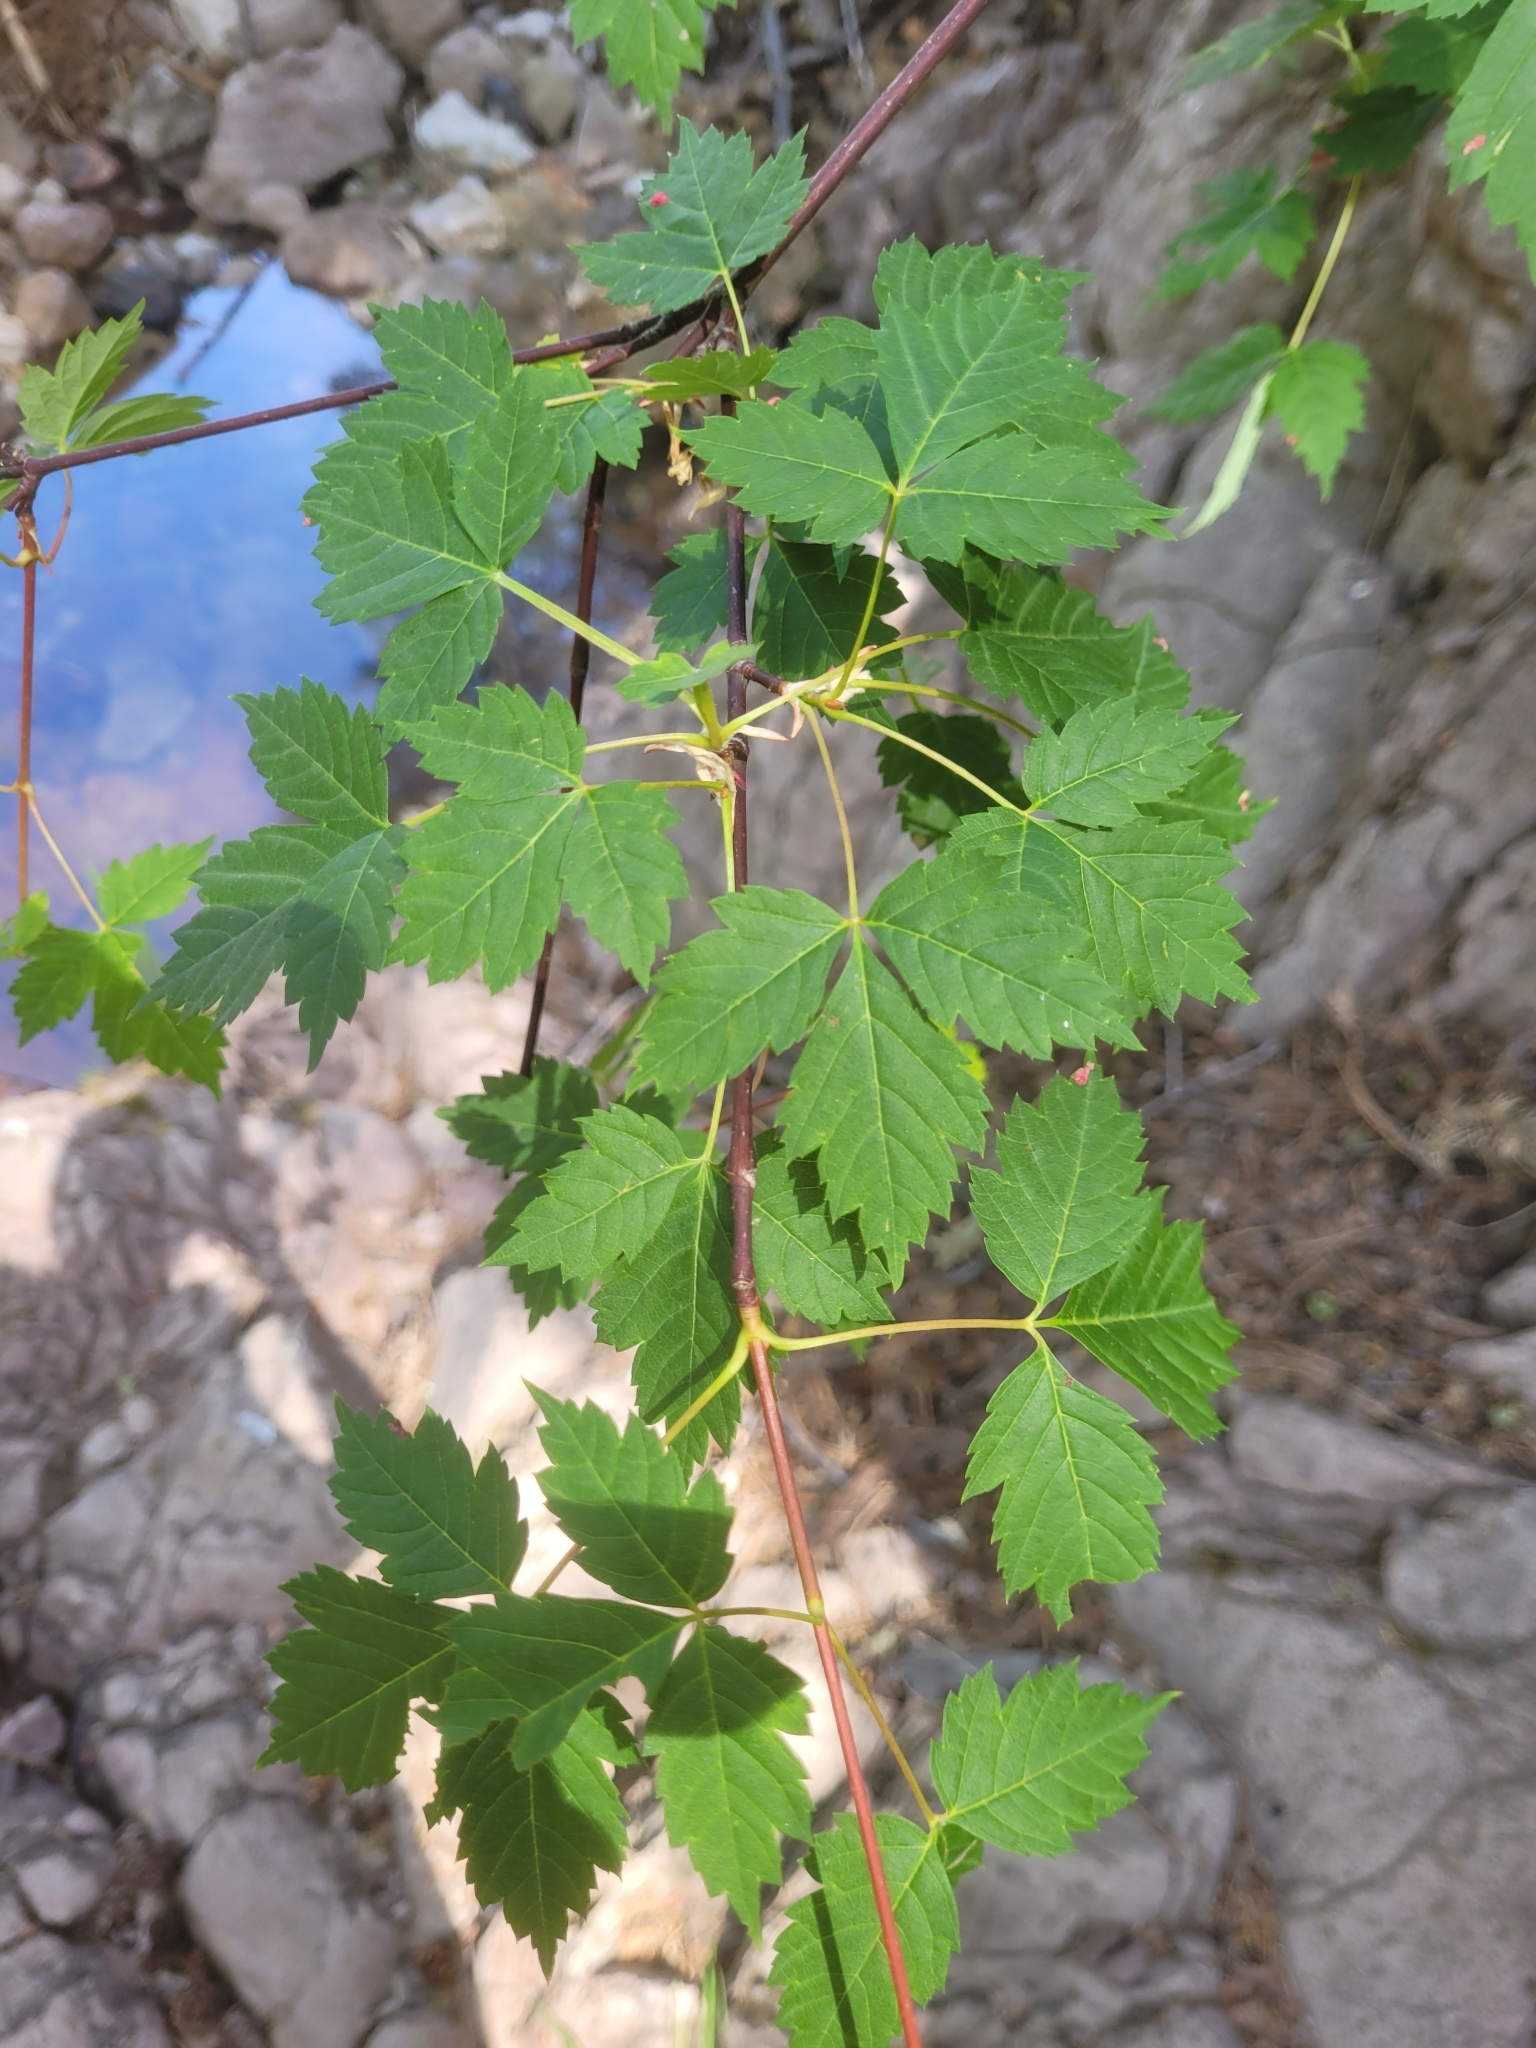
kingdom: Plantae
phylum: Tracheophyta
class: Magnoliopsida
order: Sapindales
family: Sapindaceae
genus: Acer
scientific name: Acer glabrum
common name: Rocky mountain maple
